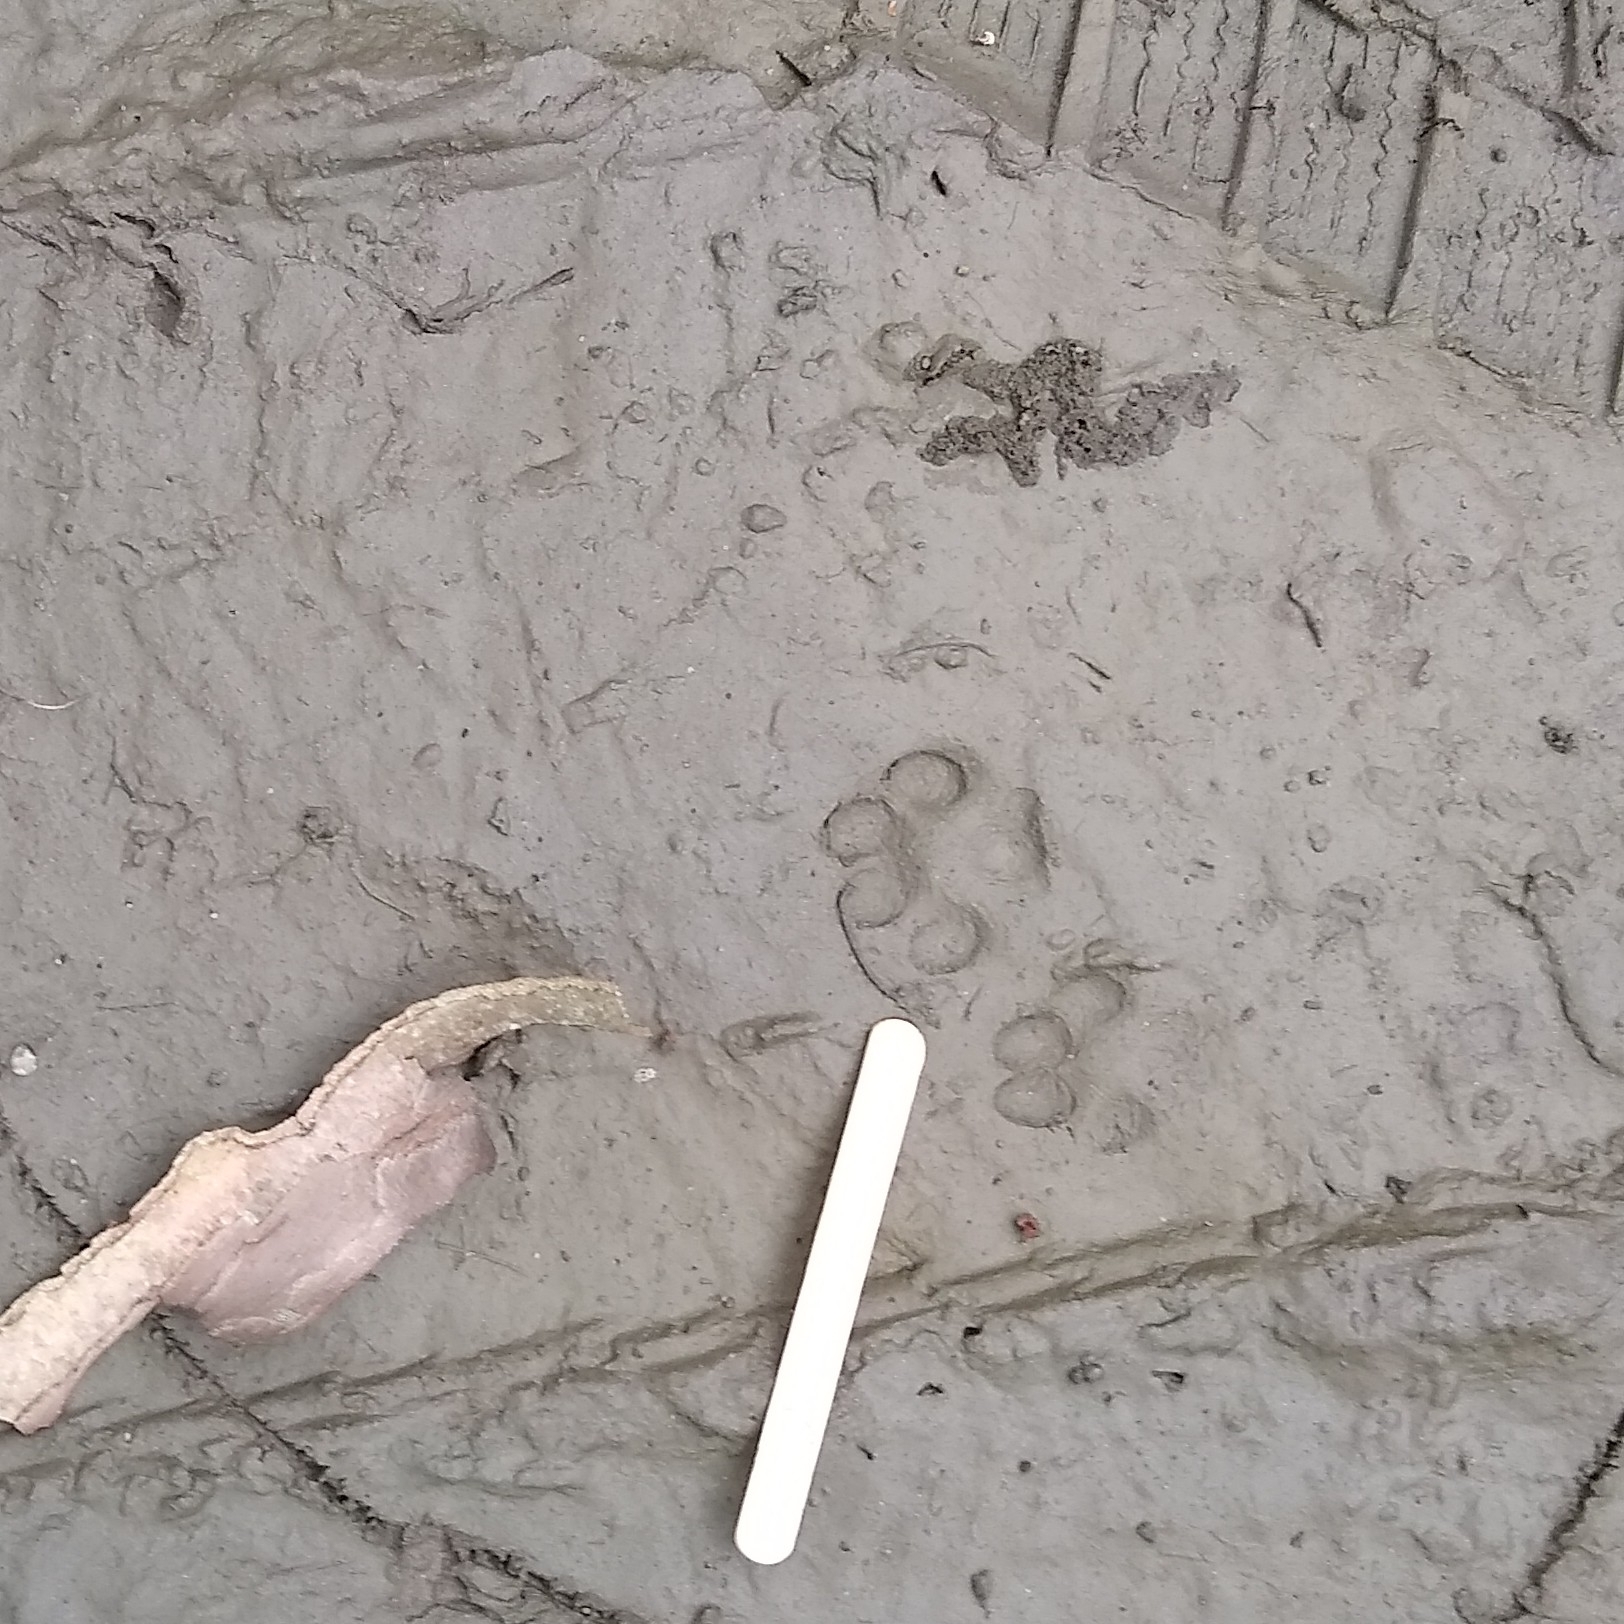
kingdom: Animalia
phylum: Chordata
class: Mammalia
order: Carnivora
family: Canidae
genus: Urocyon
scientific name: Urocyon cinereoargenteus
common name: Gray fox
